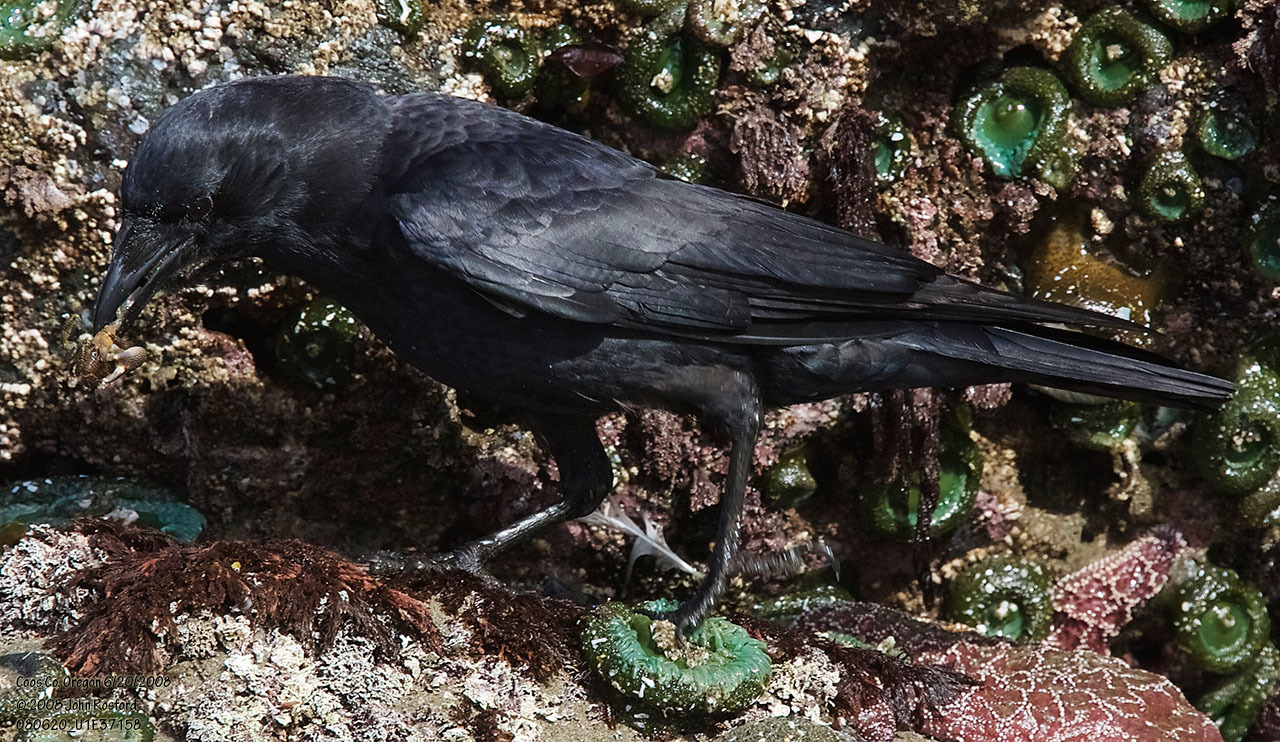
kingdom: Animalia
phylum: Chordata
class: Aves
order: Passeriformes
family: Corvidae
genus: Corvus
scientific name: Corvus brachyrhynchos
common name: American crow
